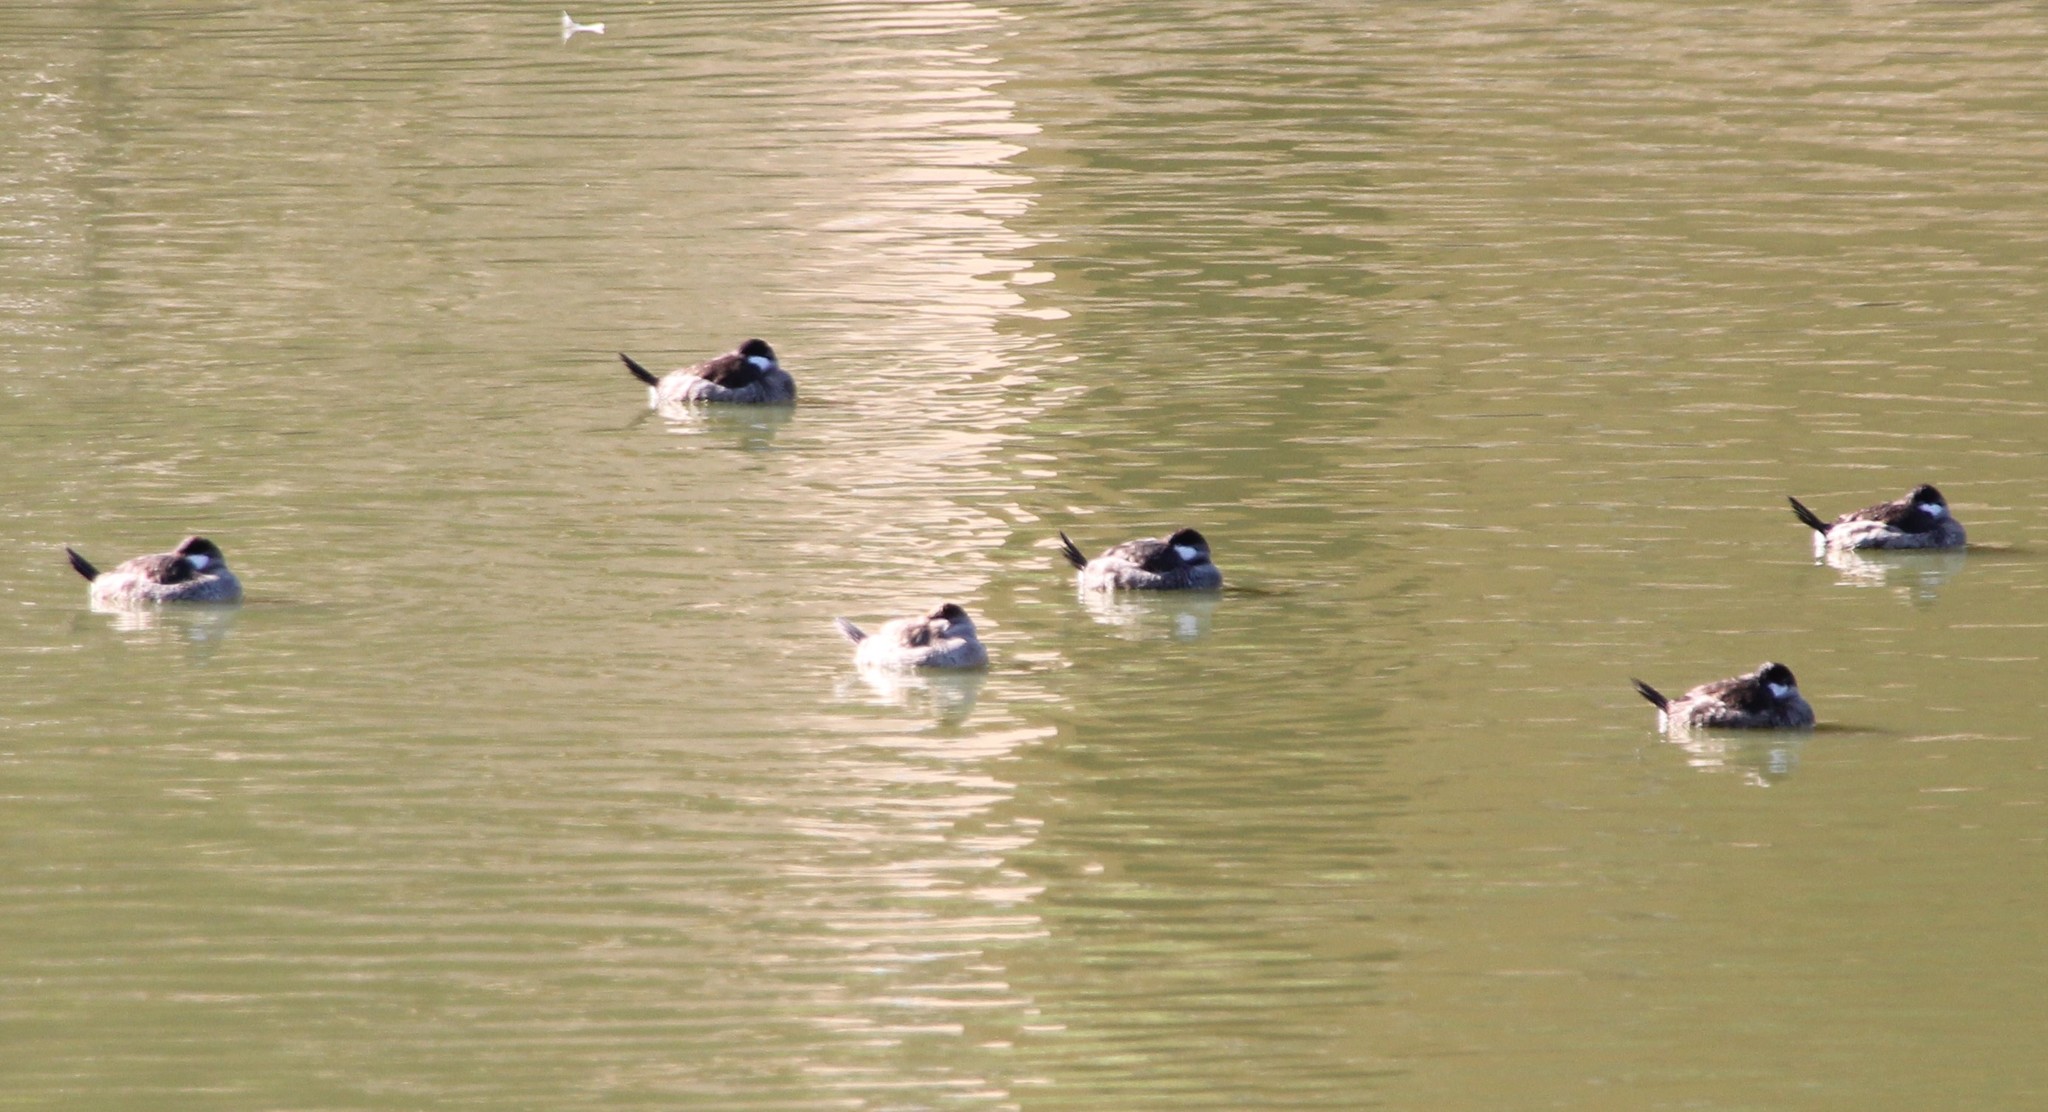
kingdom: Animalia
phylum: Chordata
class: Aves
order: Anseriformes
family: Anatidae
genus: Oxyura
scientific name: Oxyura jamaicensis
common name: Ruddy duck
